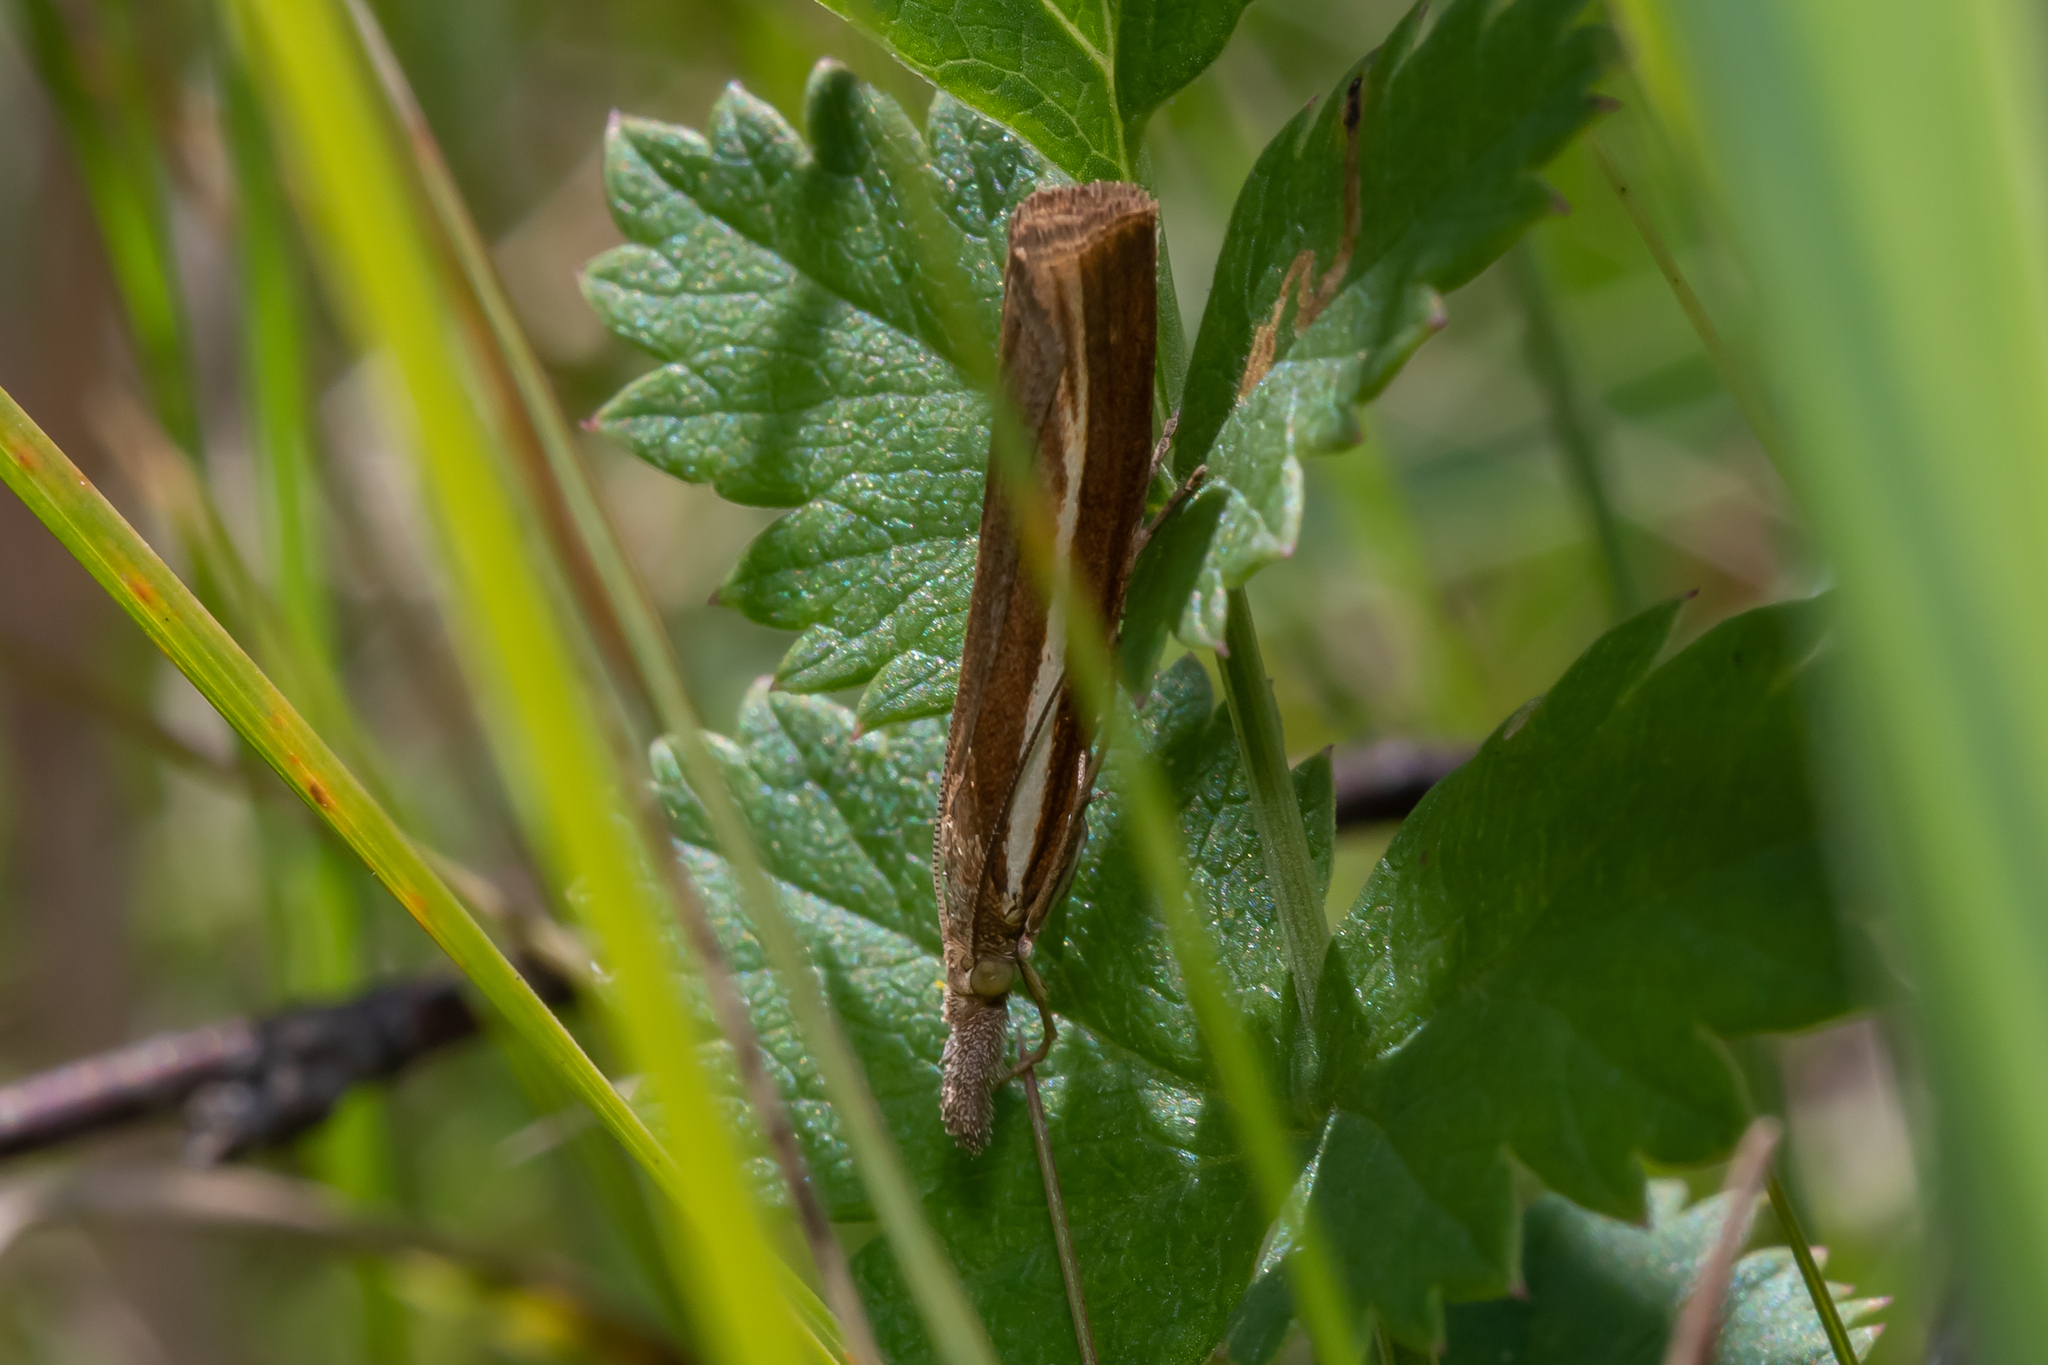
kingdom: Animalia
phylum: Arthropoda
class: Insecta
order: Lepidoptera
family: Crambidae
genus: Agriphila
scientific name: Agriphila tristellus
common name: Common grass-veneer
